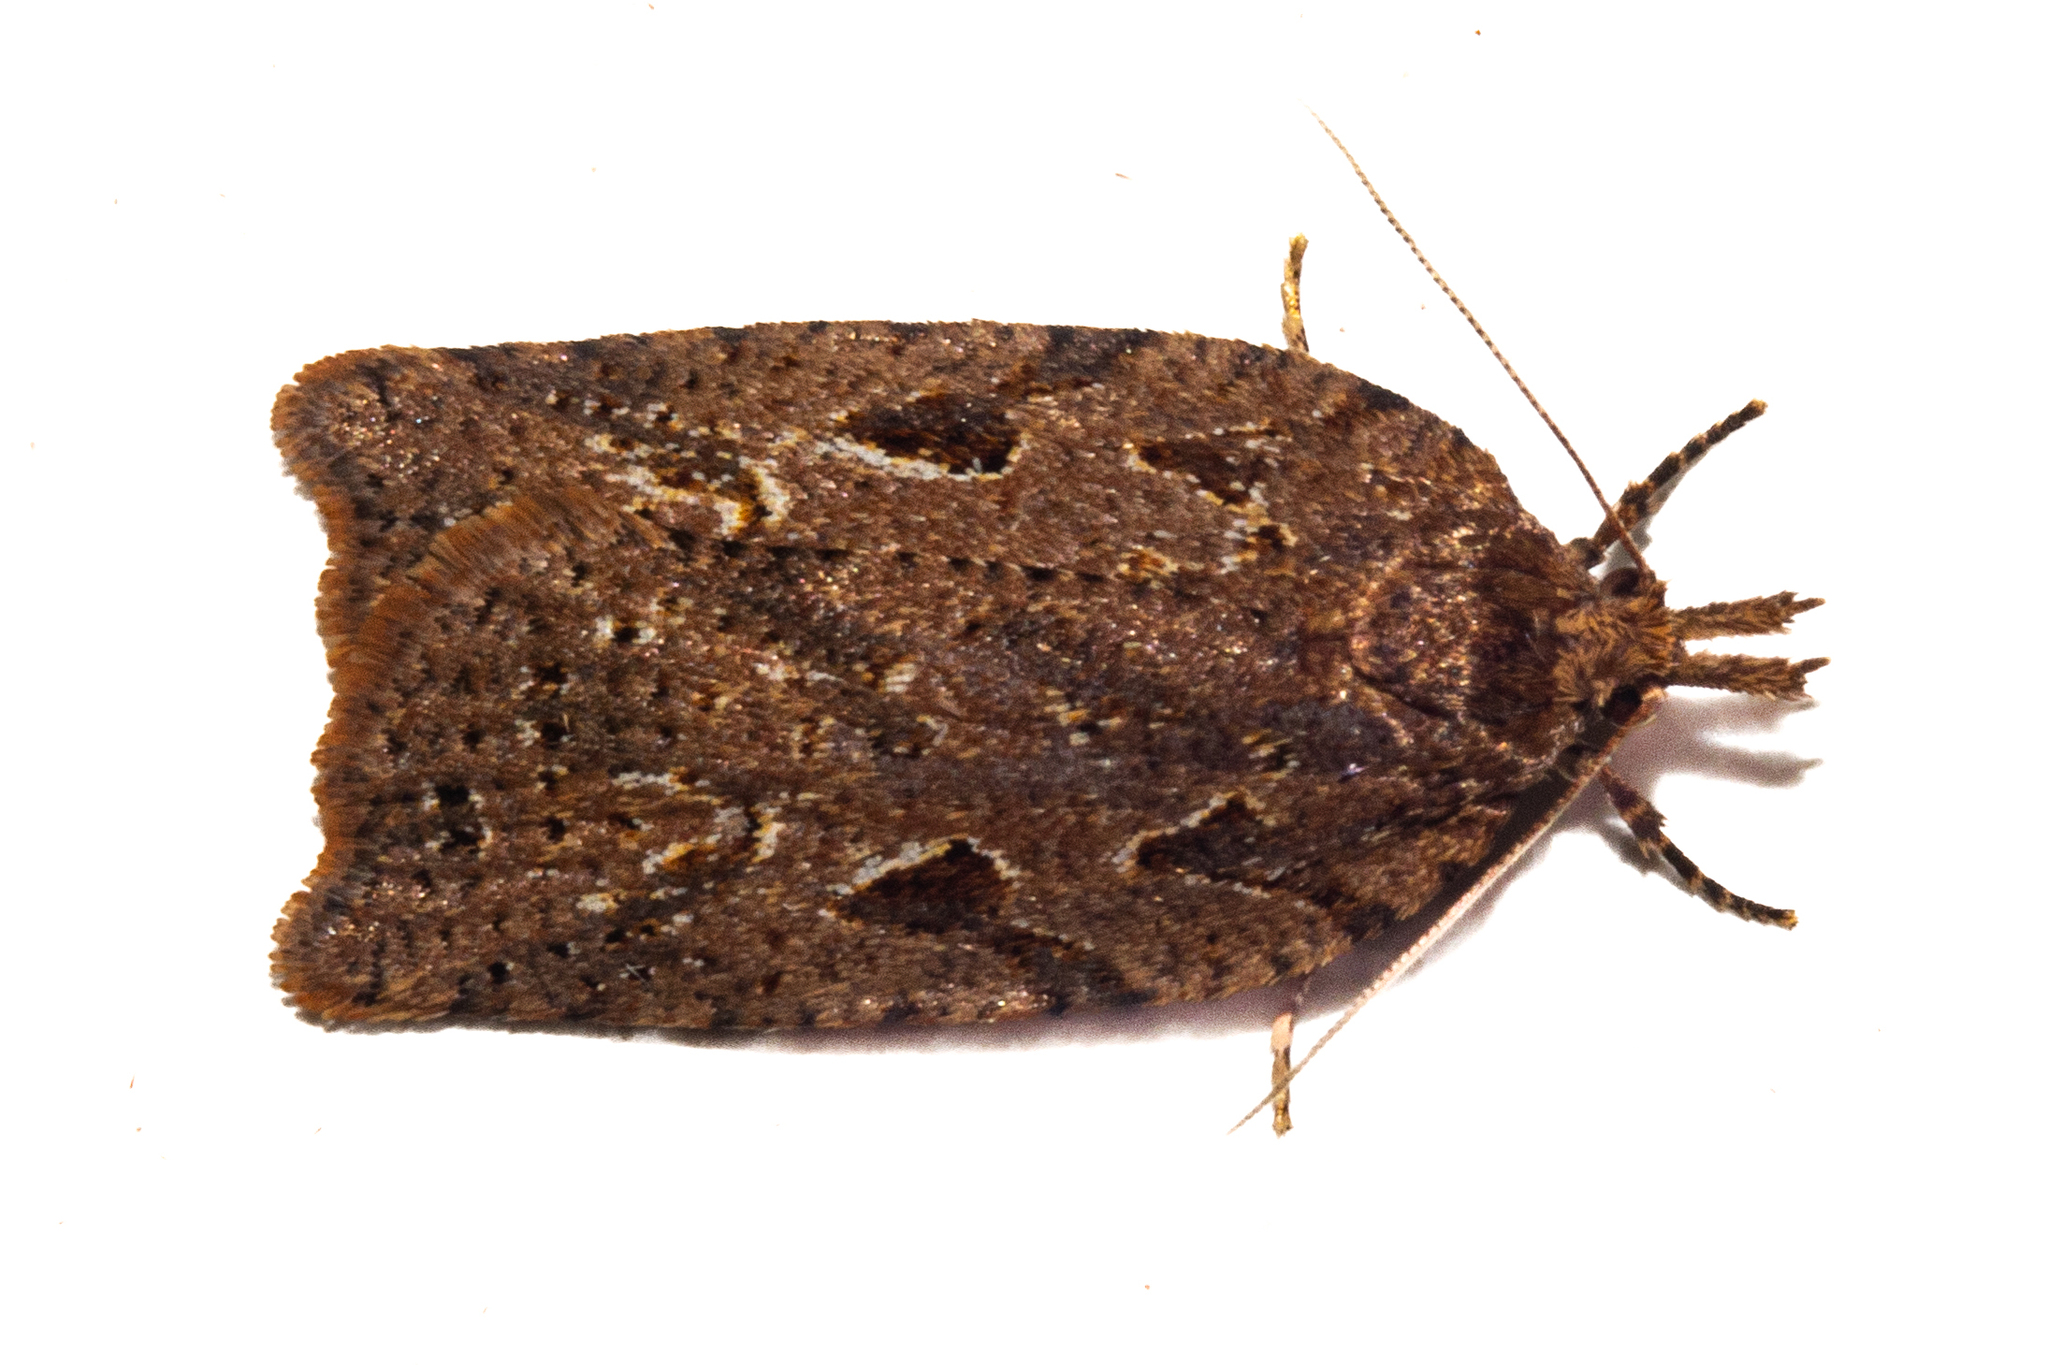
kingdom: Animalia
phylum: Arthropoda
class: Insecta
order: Lepidoptera
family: Tortricidae
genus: Ctenopseustis
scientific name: Ctenopseustis fraterna
